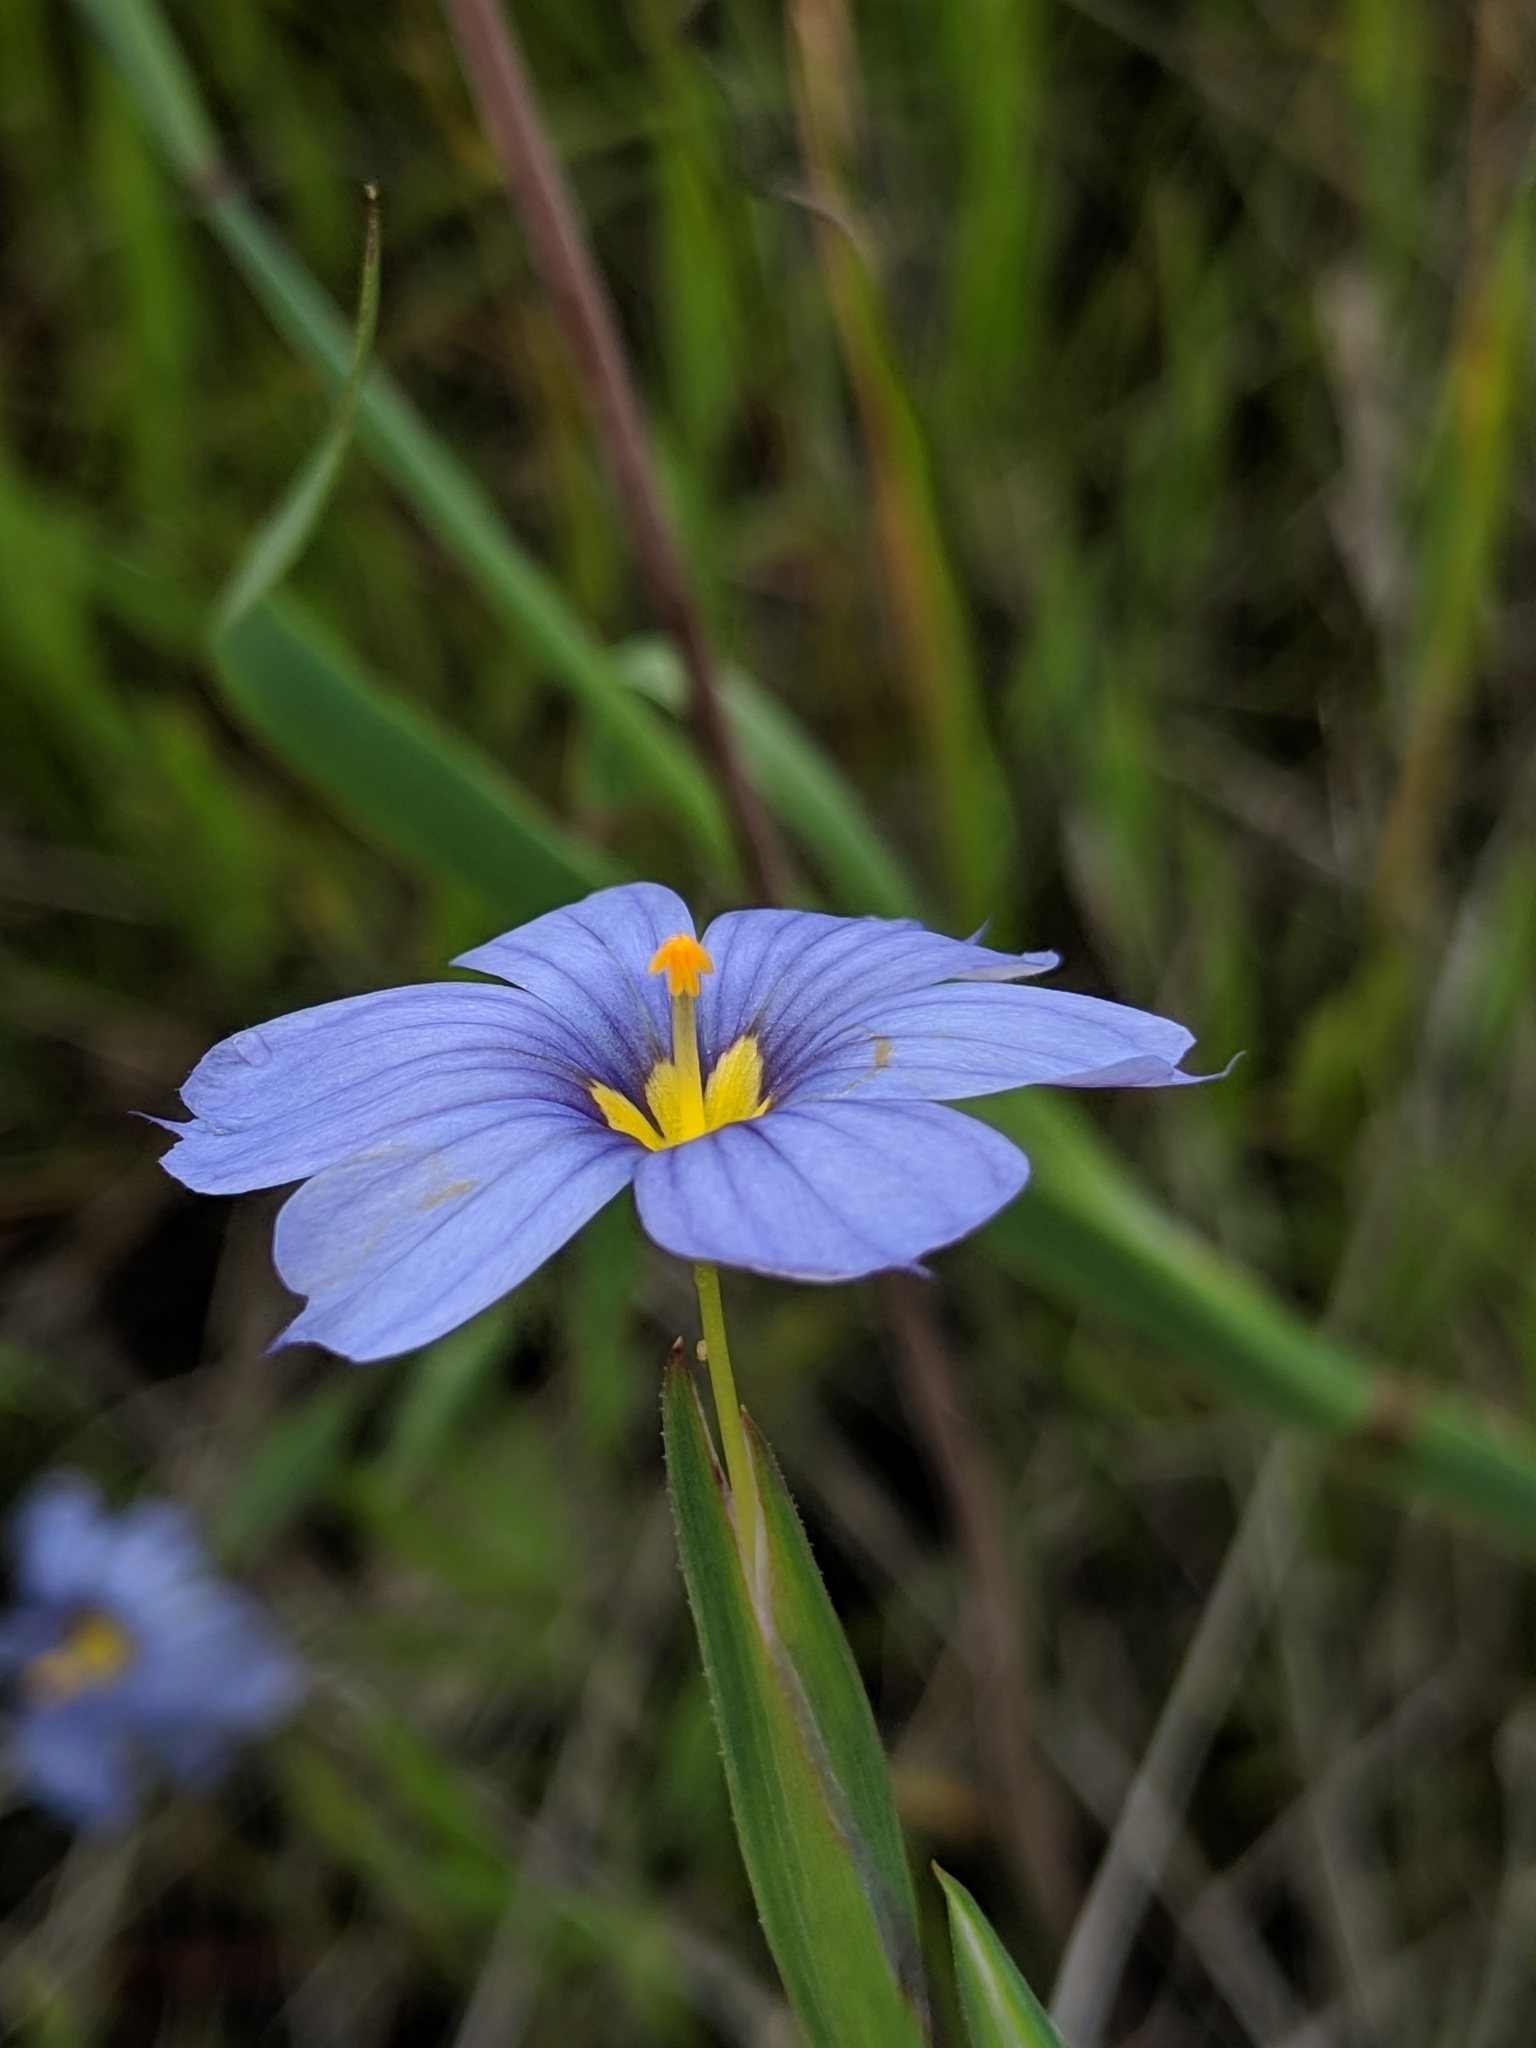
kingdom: Plantae
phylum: Tracheophyta
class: Liliopsida
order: Asparagales
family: Iridaceae
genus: Sisyrinchium
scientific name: Sisyrinchium bellum
